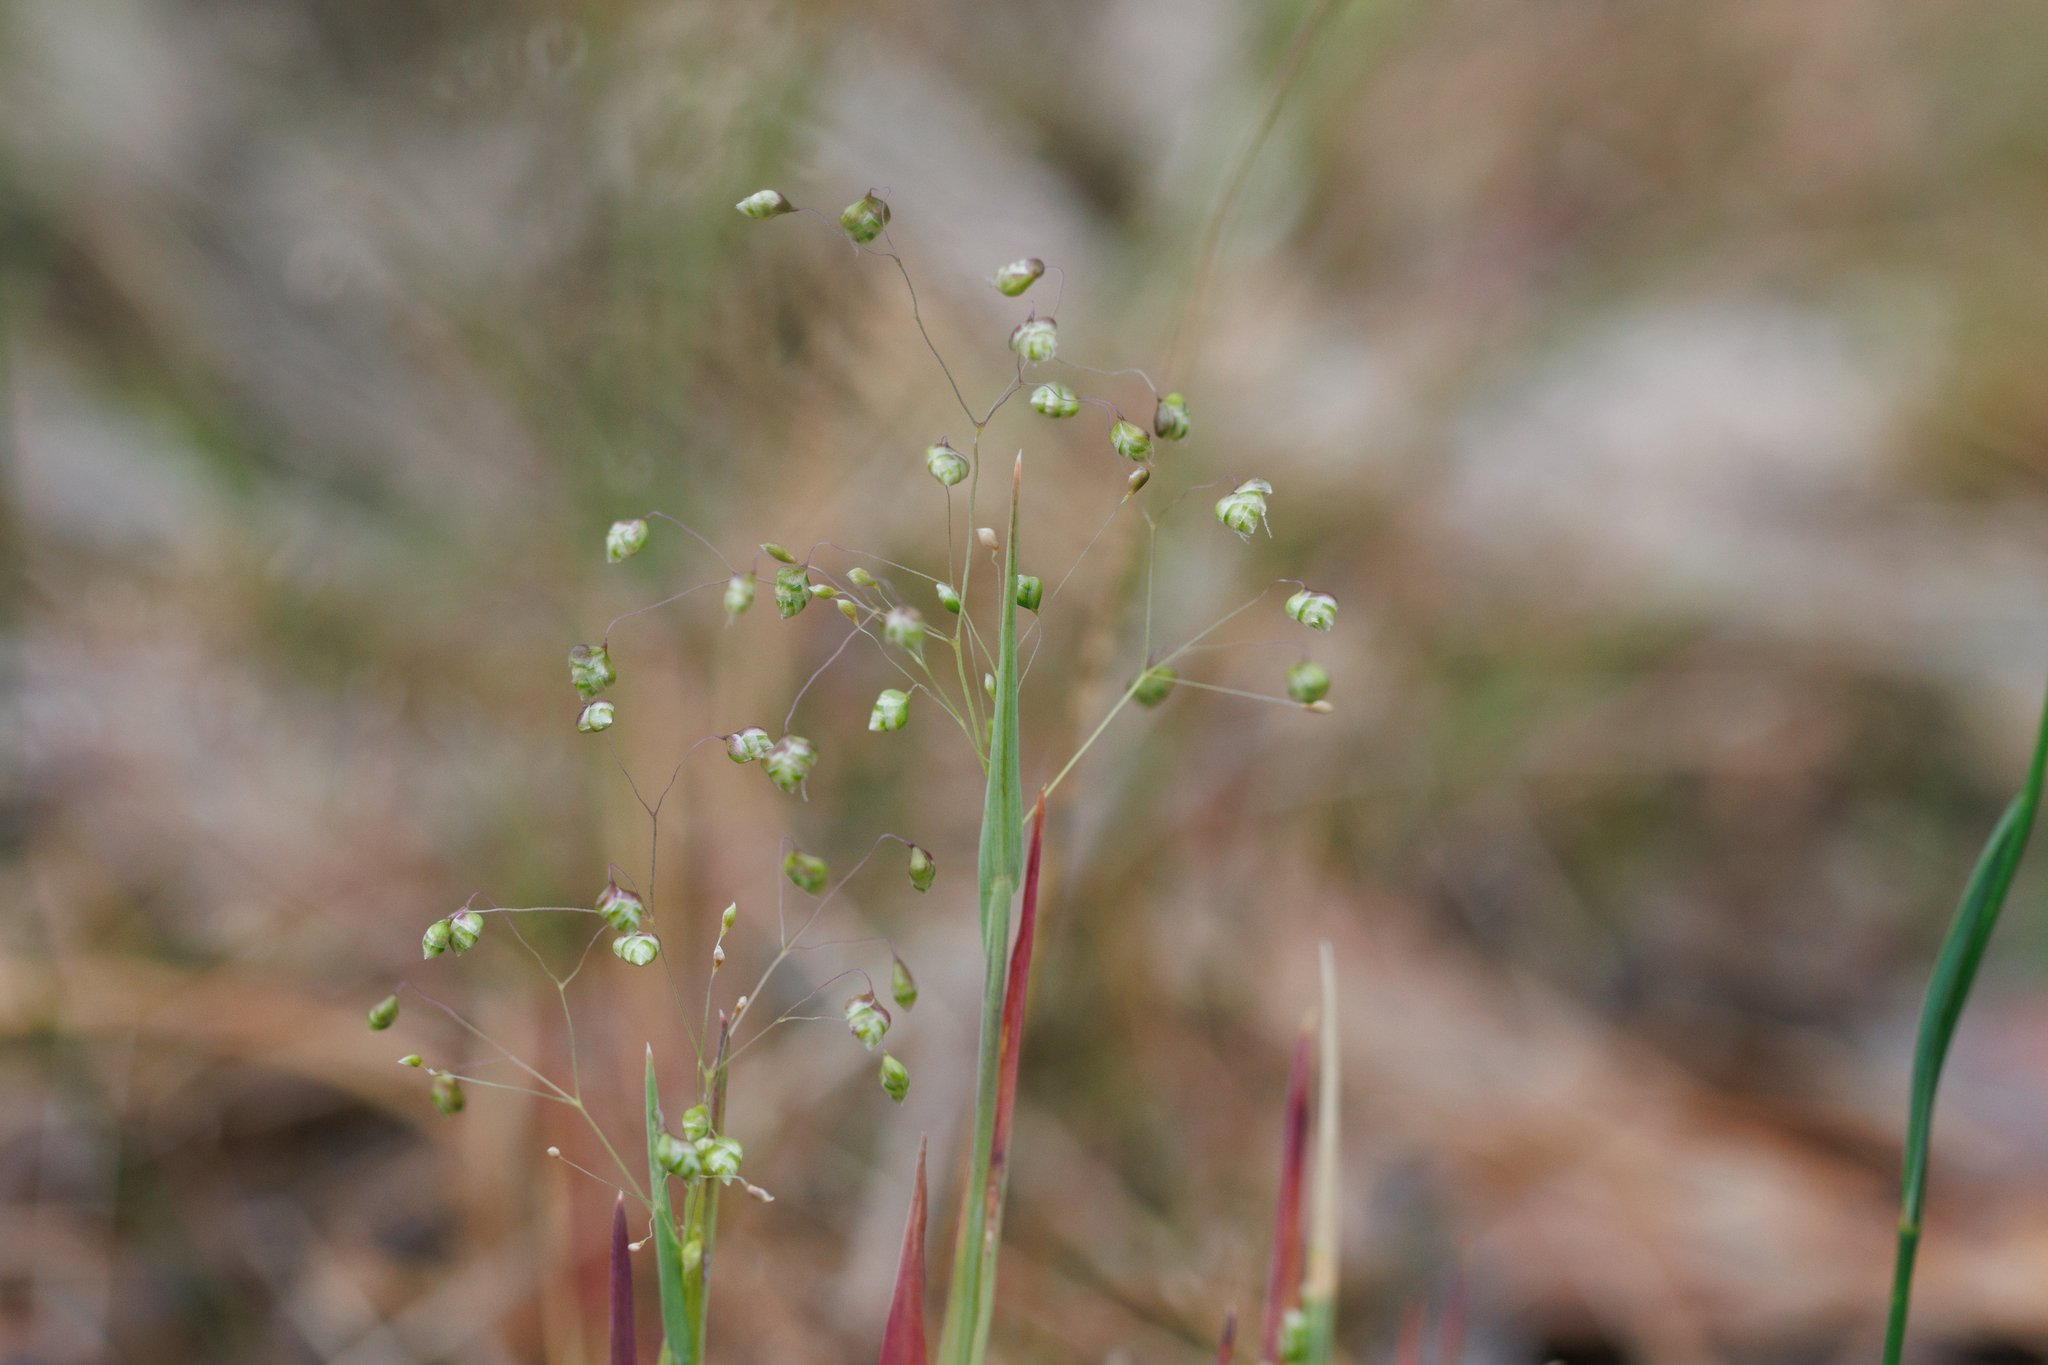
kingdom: Plantae
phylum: Tracheophyta
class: Liliopsida
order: Poales
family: Poaceae
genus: Briza
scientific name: Briza minor
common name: Lesser quaking-grass
